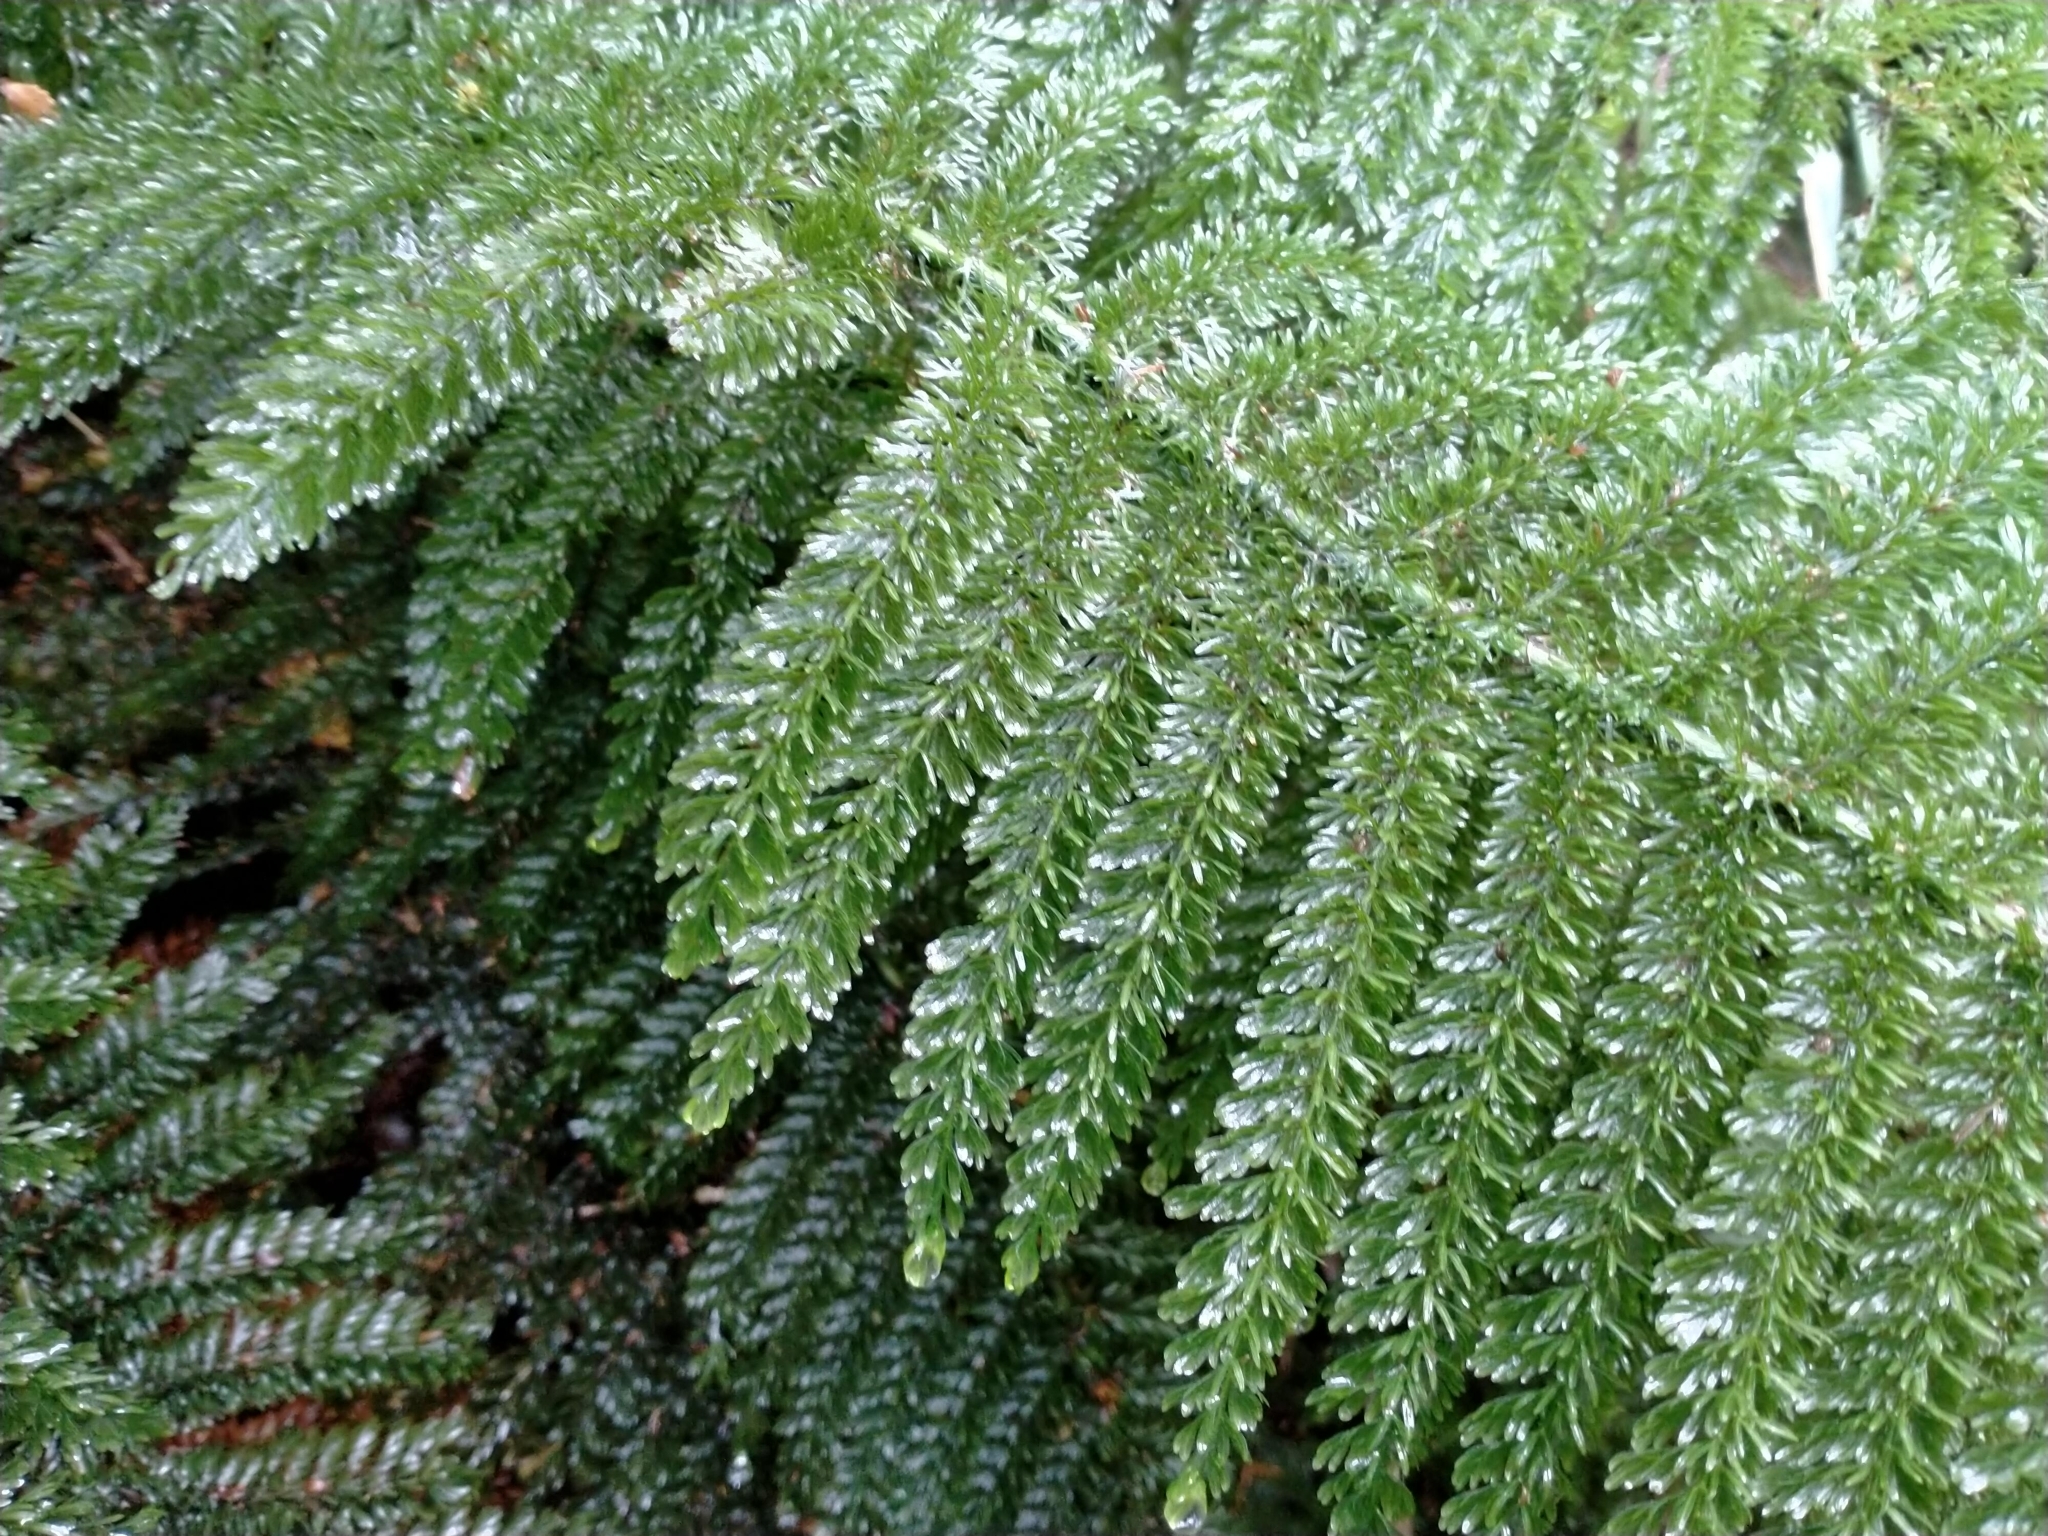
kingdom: Plantae
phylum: Tracheophyta
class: Polypodiopsida
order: Osmundales
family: Osmundaceae
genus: Leptopteris
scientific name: Leptopteris superba
